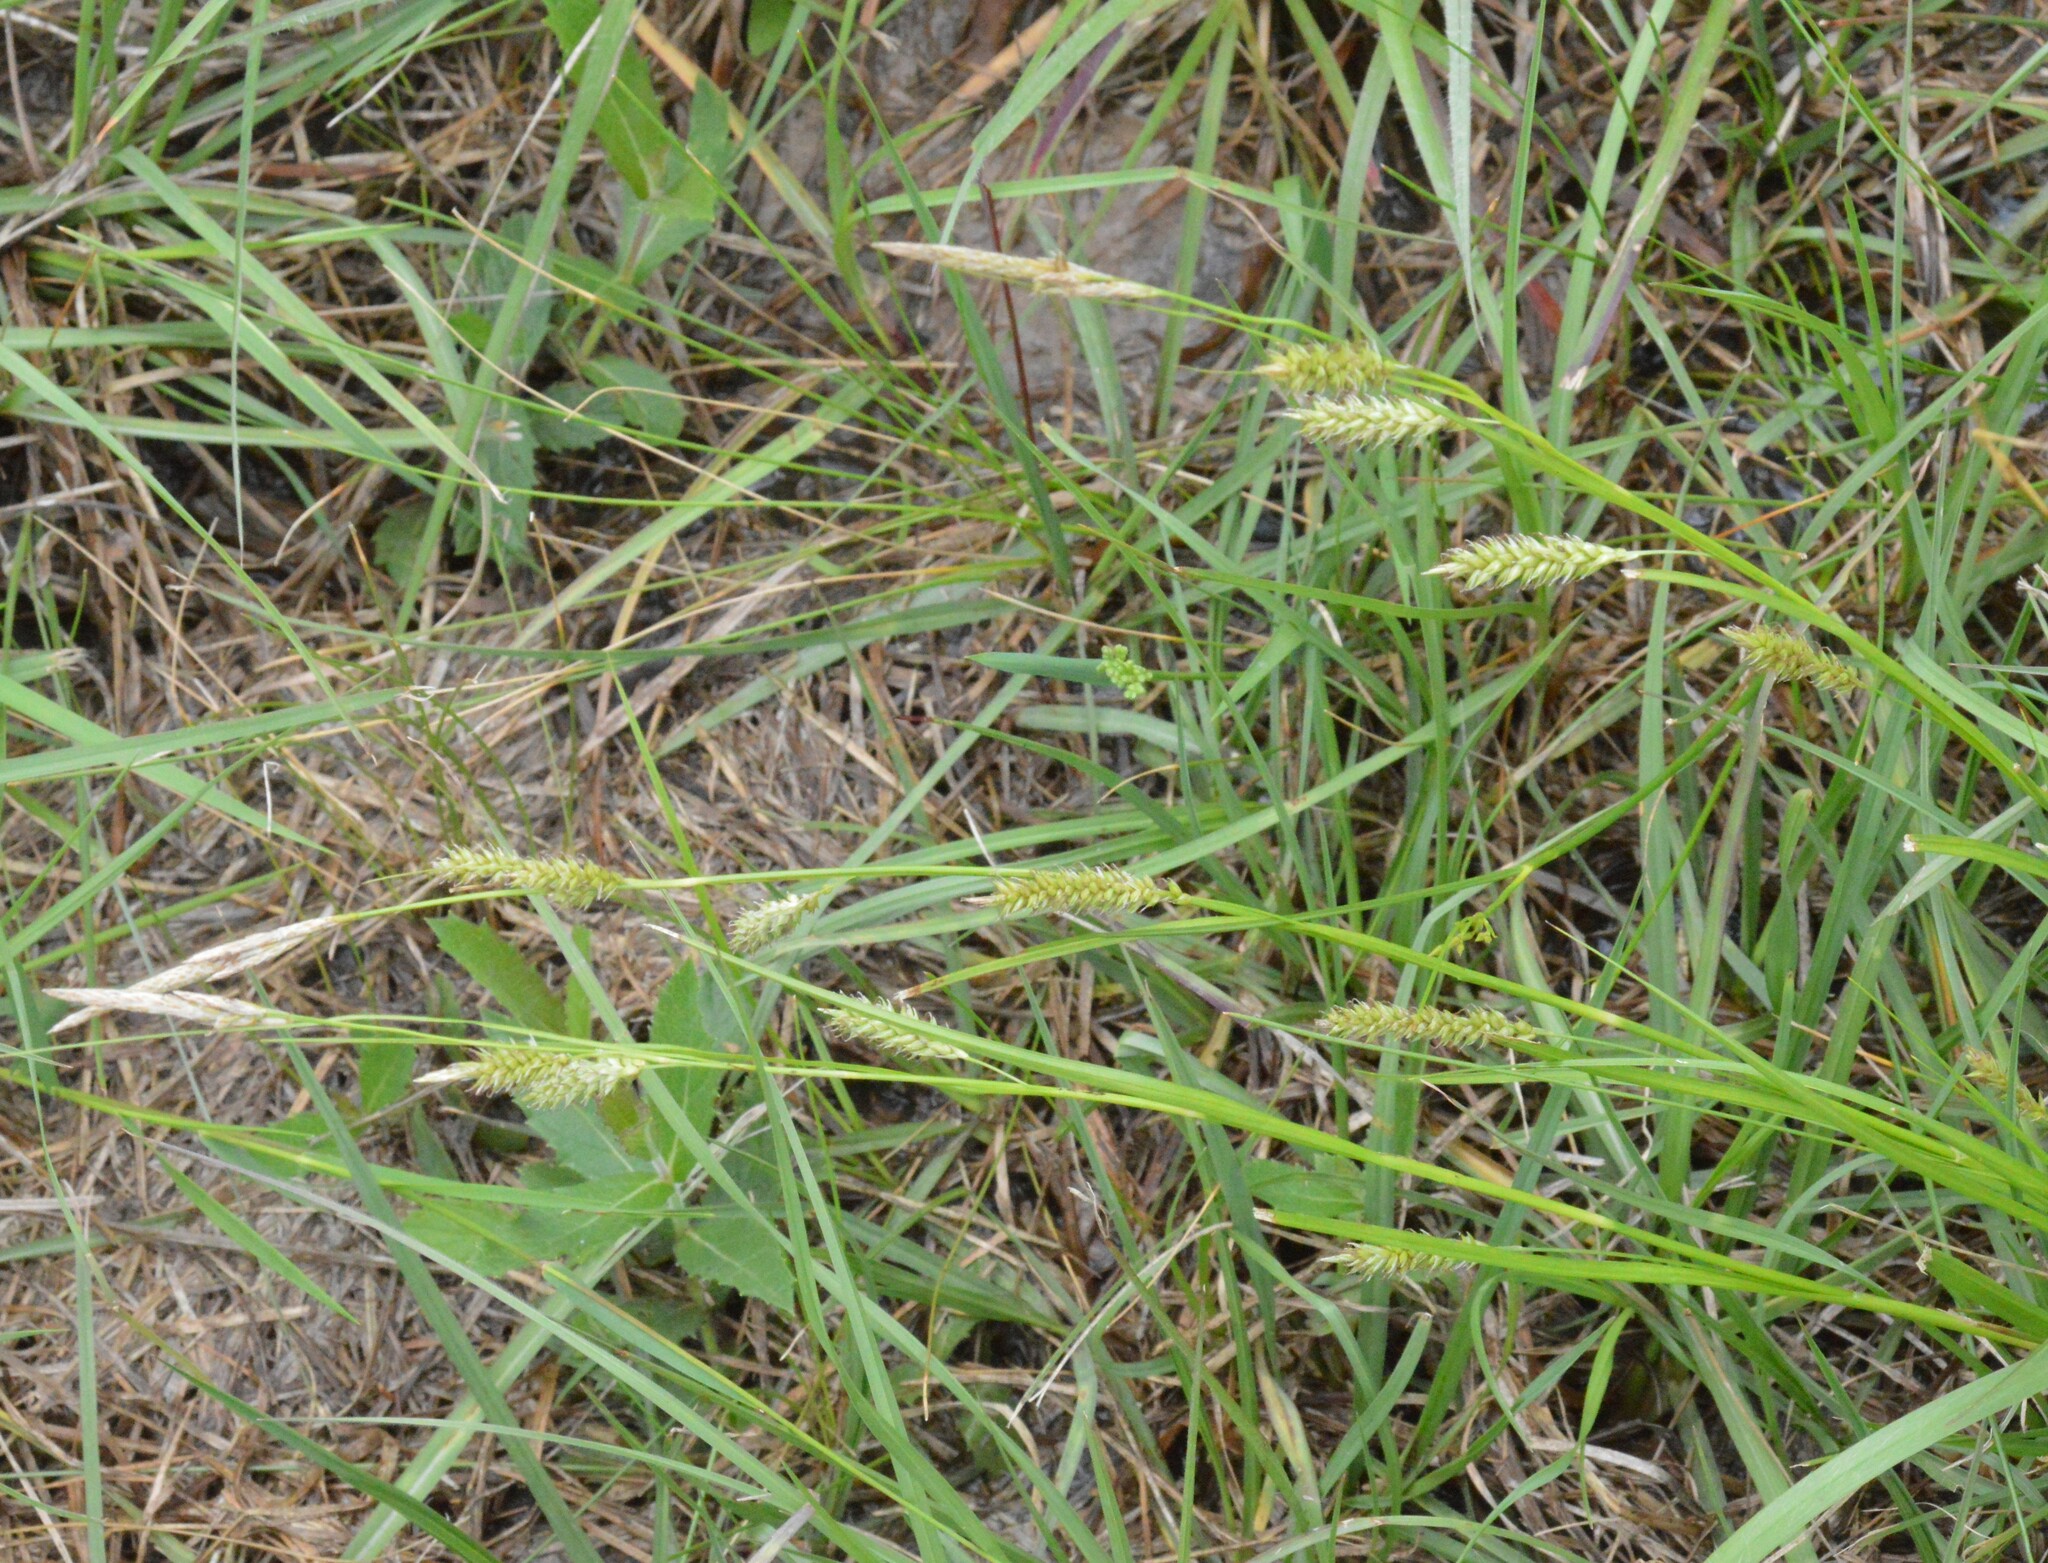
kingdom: Plantae
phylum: Tracheophyta
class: Liliopsida
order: Poales
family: Cyperaceae
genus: Carex
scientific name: Carex cherokeensis
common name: Cherokee sedge
